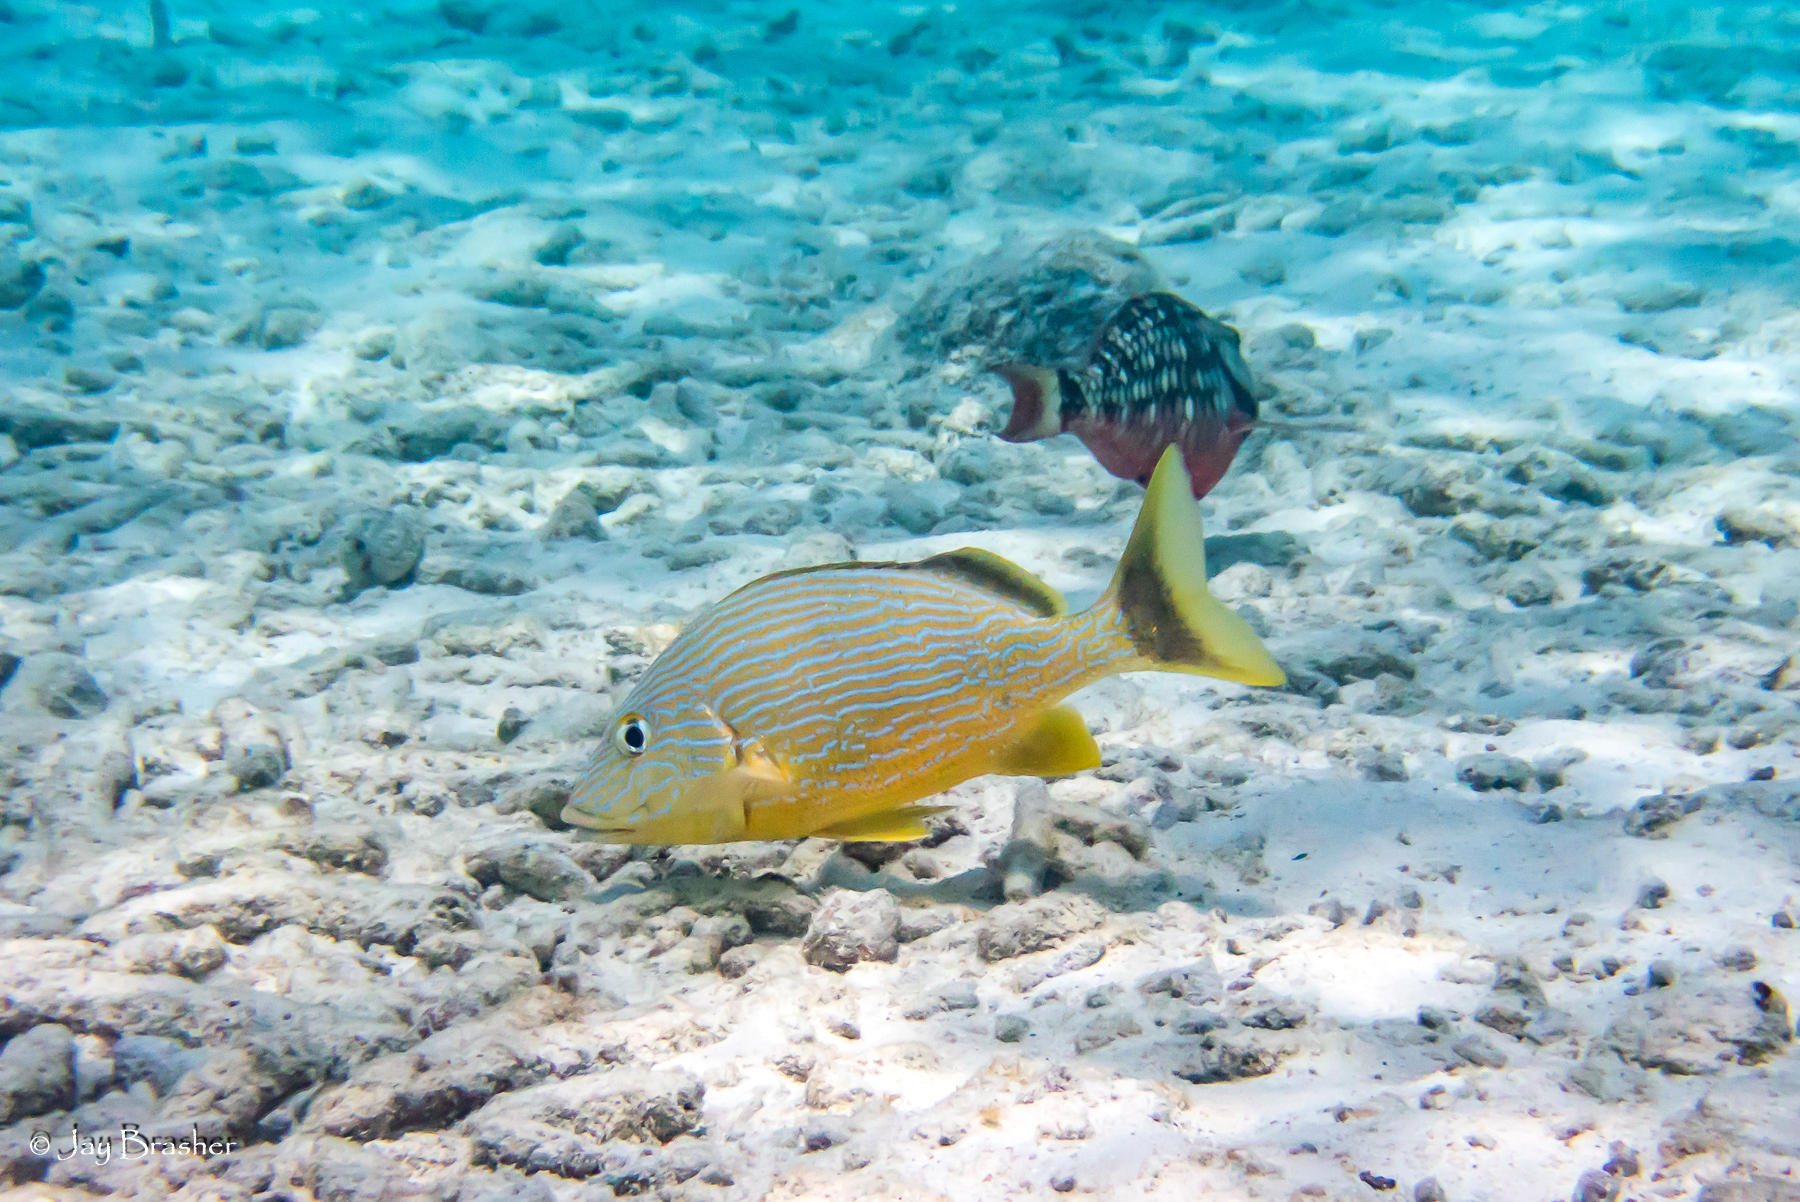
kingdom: Animalia
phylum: Chordata
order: Perciformes
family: Haemulidae
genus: Haemulon
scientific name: Haemulon sciurus
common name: Bluestriped grunt
